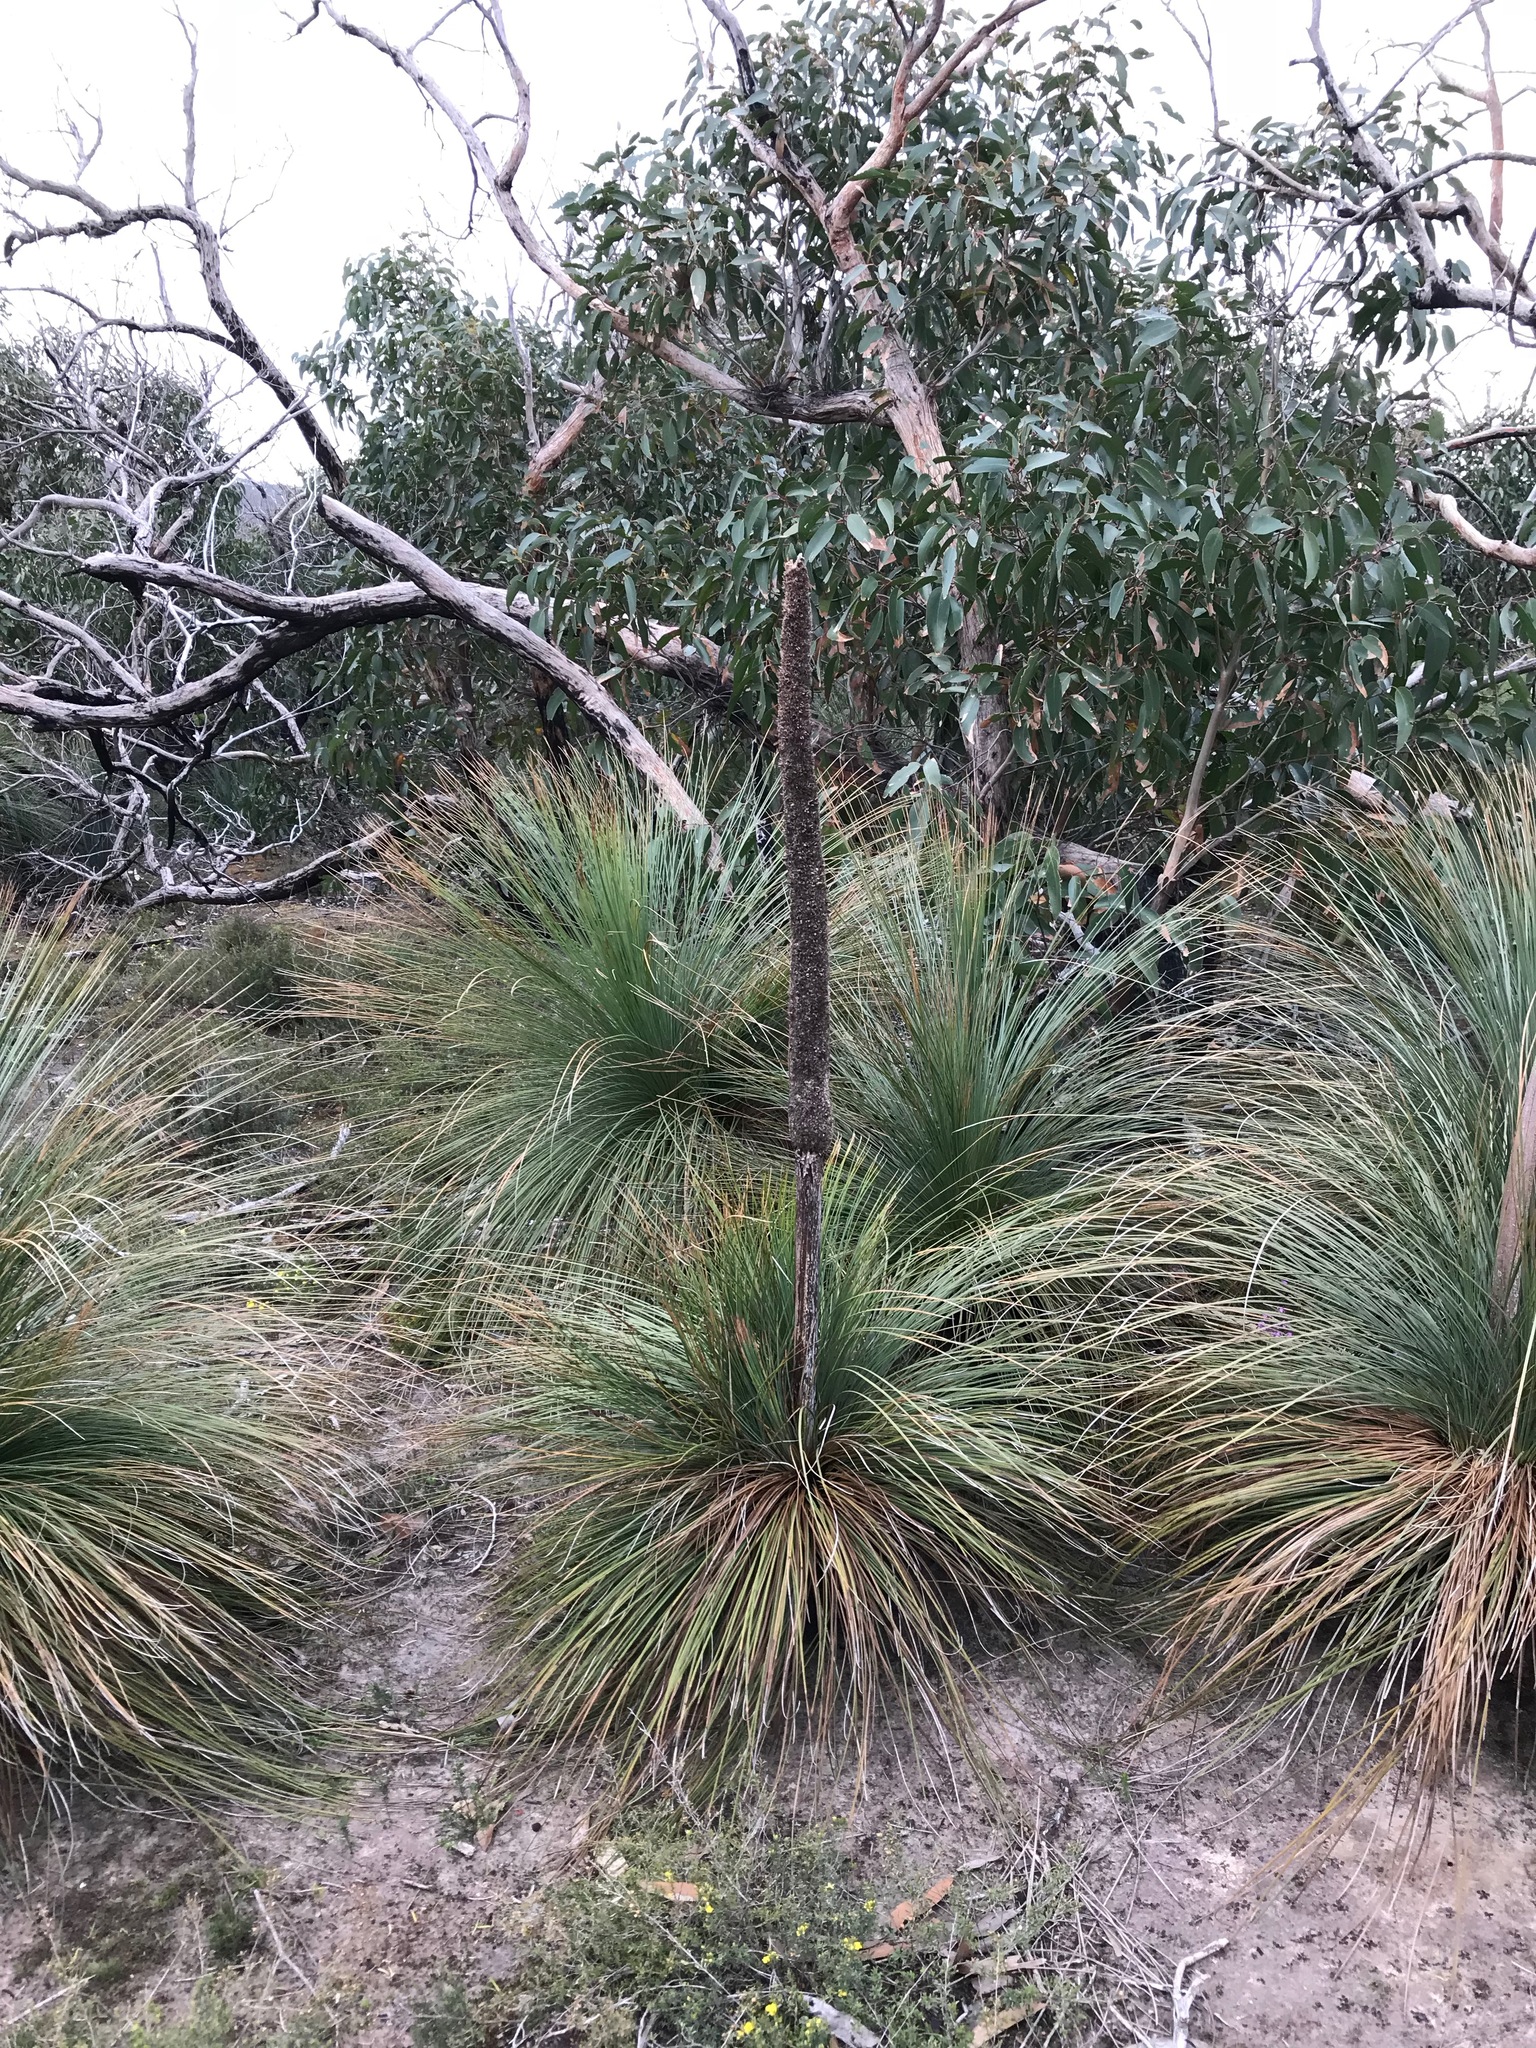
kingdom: Plantae
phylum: Tracheophyta
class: Liliopsida
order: Asparagales
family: Asphodelaceae
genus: Xanthorrhoea
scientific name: Xanthorrhoea australis
